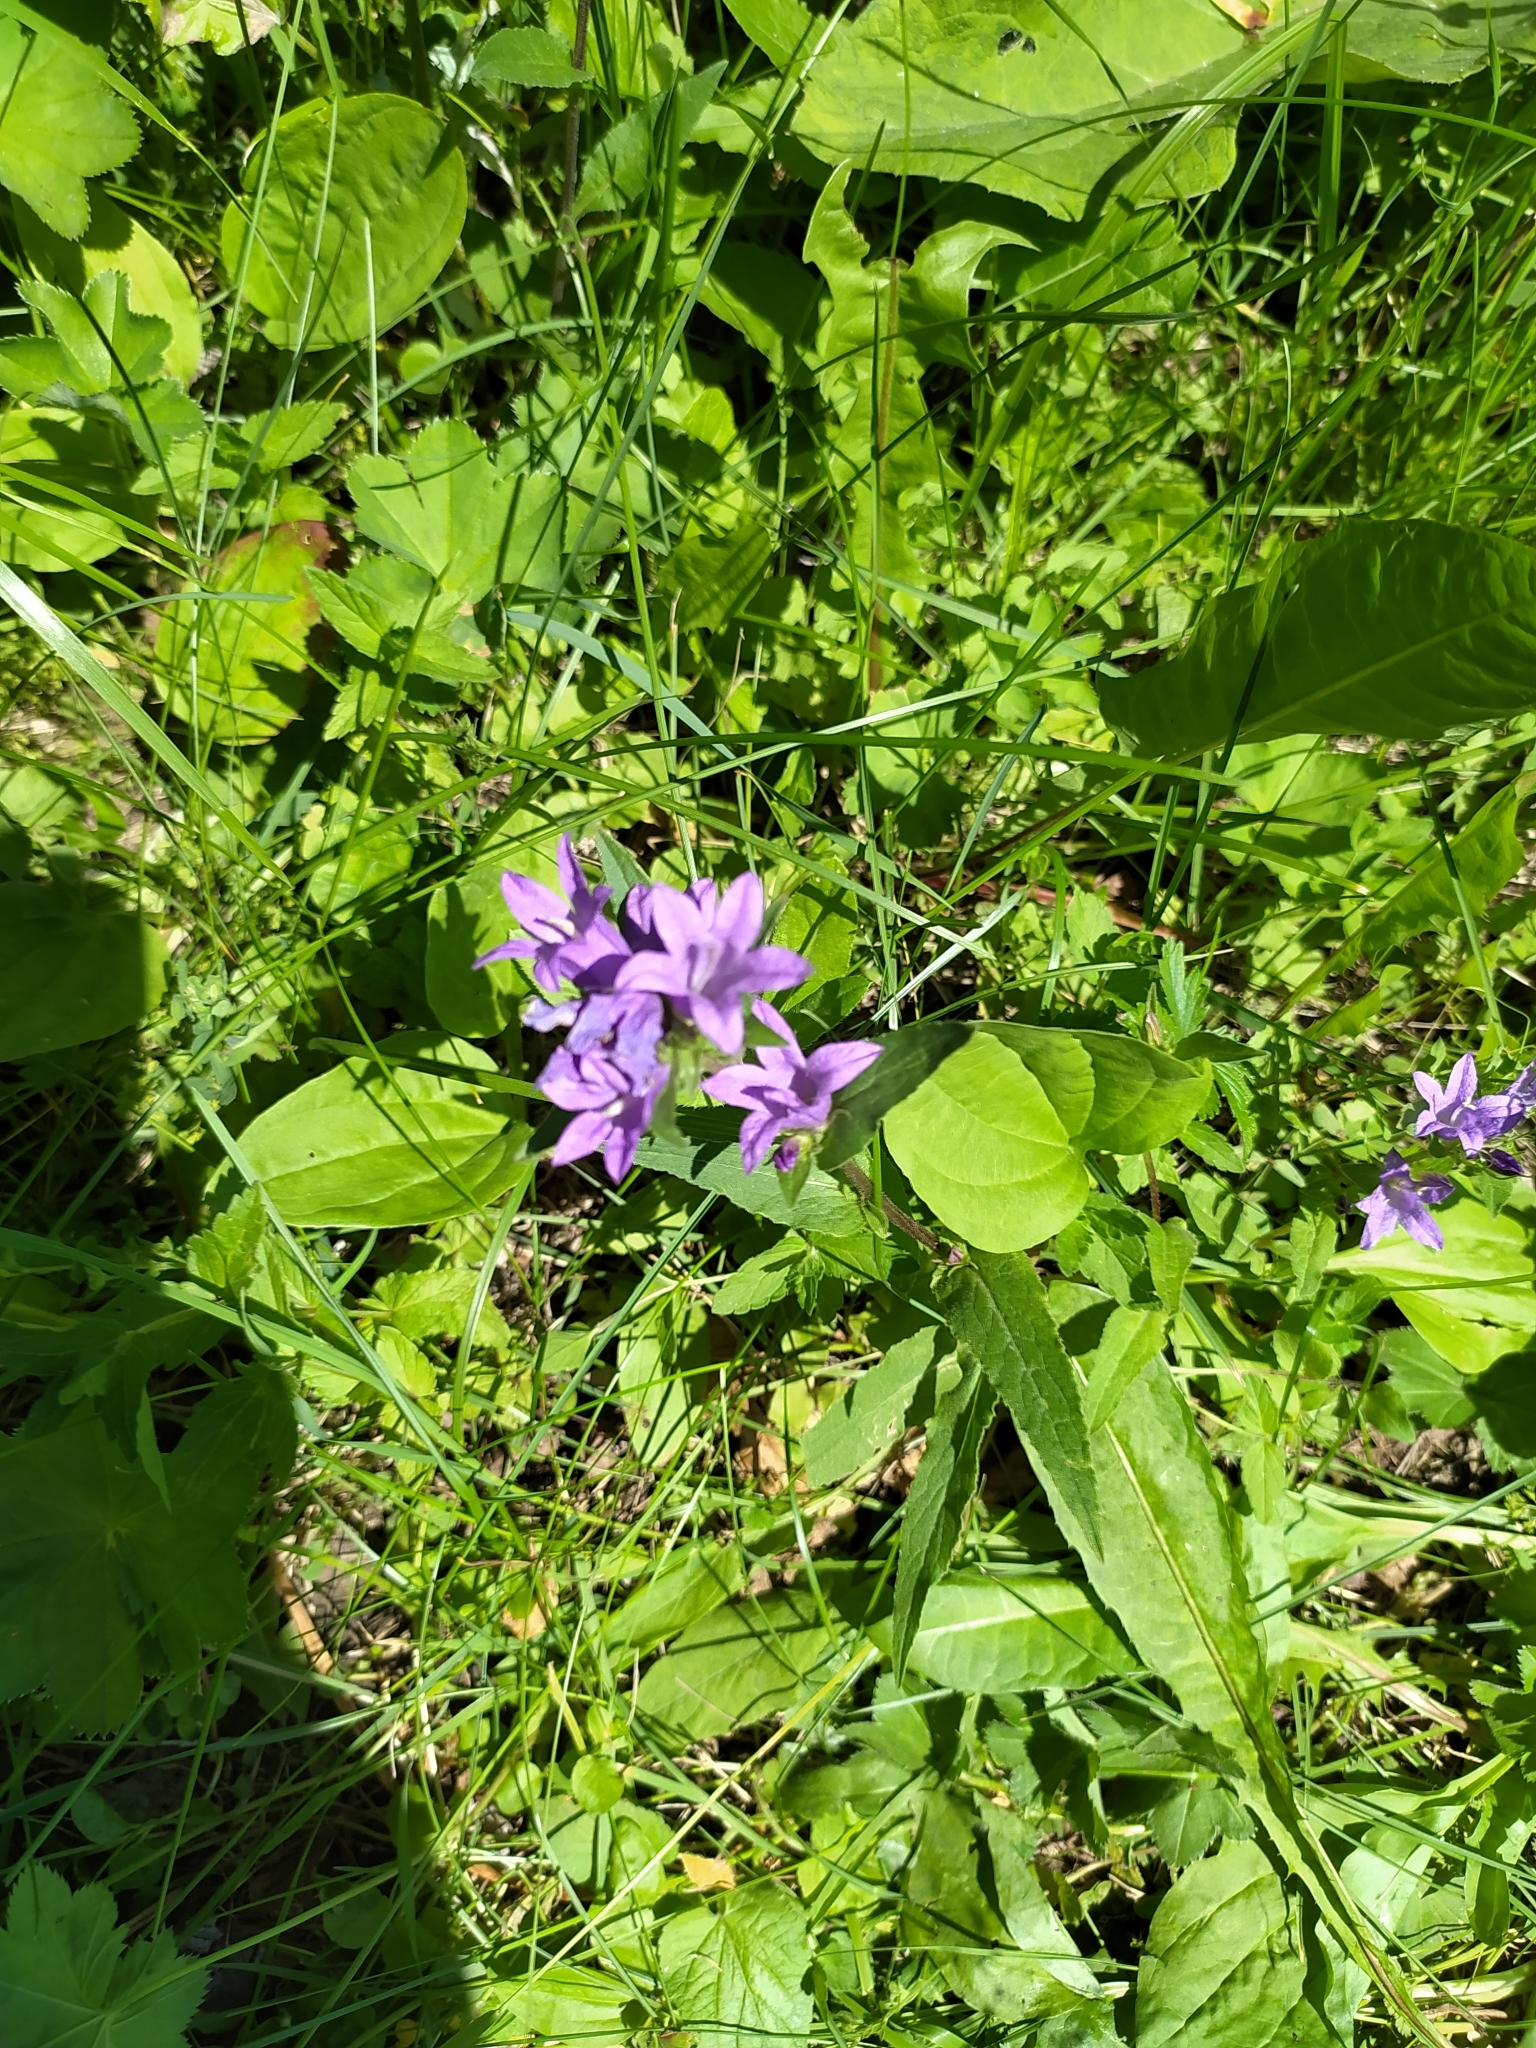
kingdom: Plantae
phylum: Tracheophyta
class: Magnoliopsida
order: Asterales
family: Campanulaceae
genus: Campanula
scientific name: Campanula glomerata
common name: Clustered bellflower
